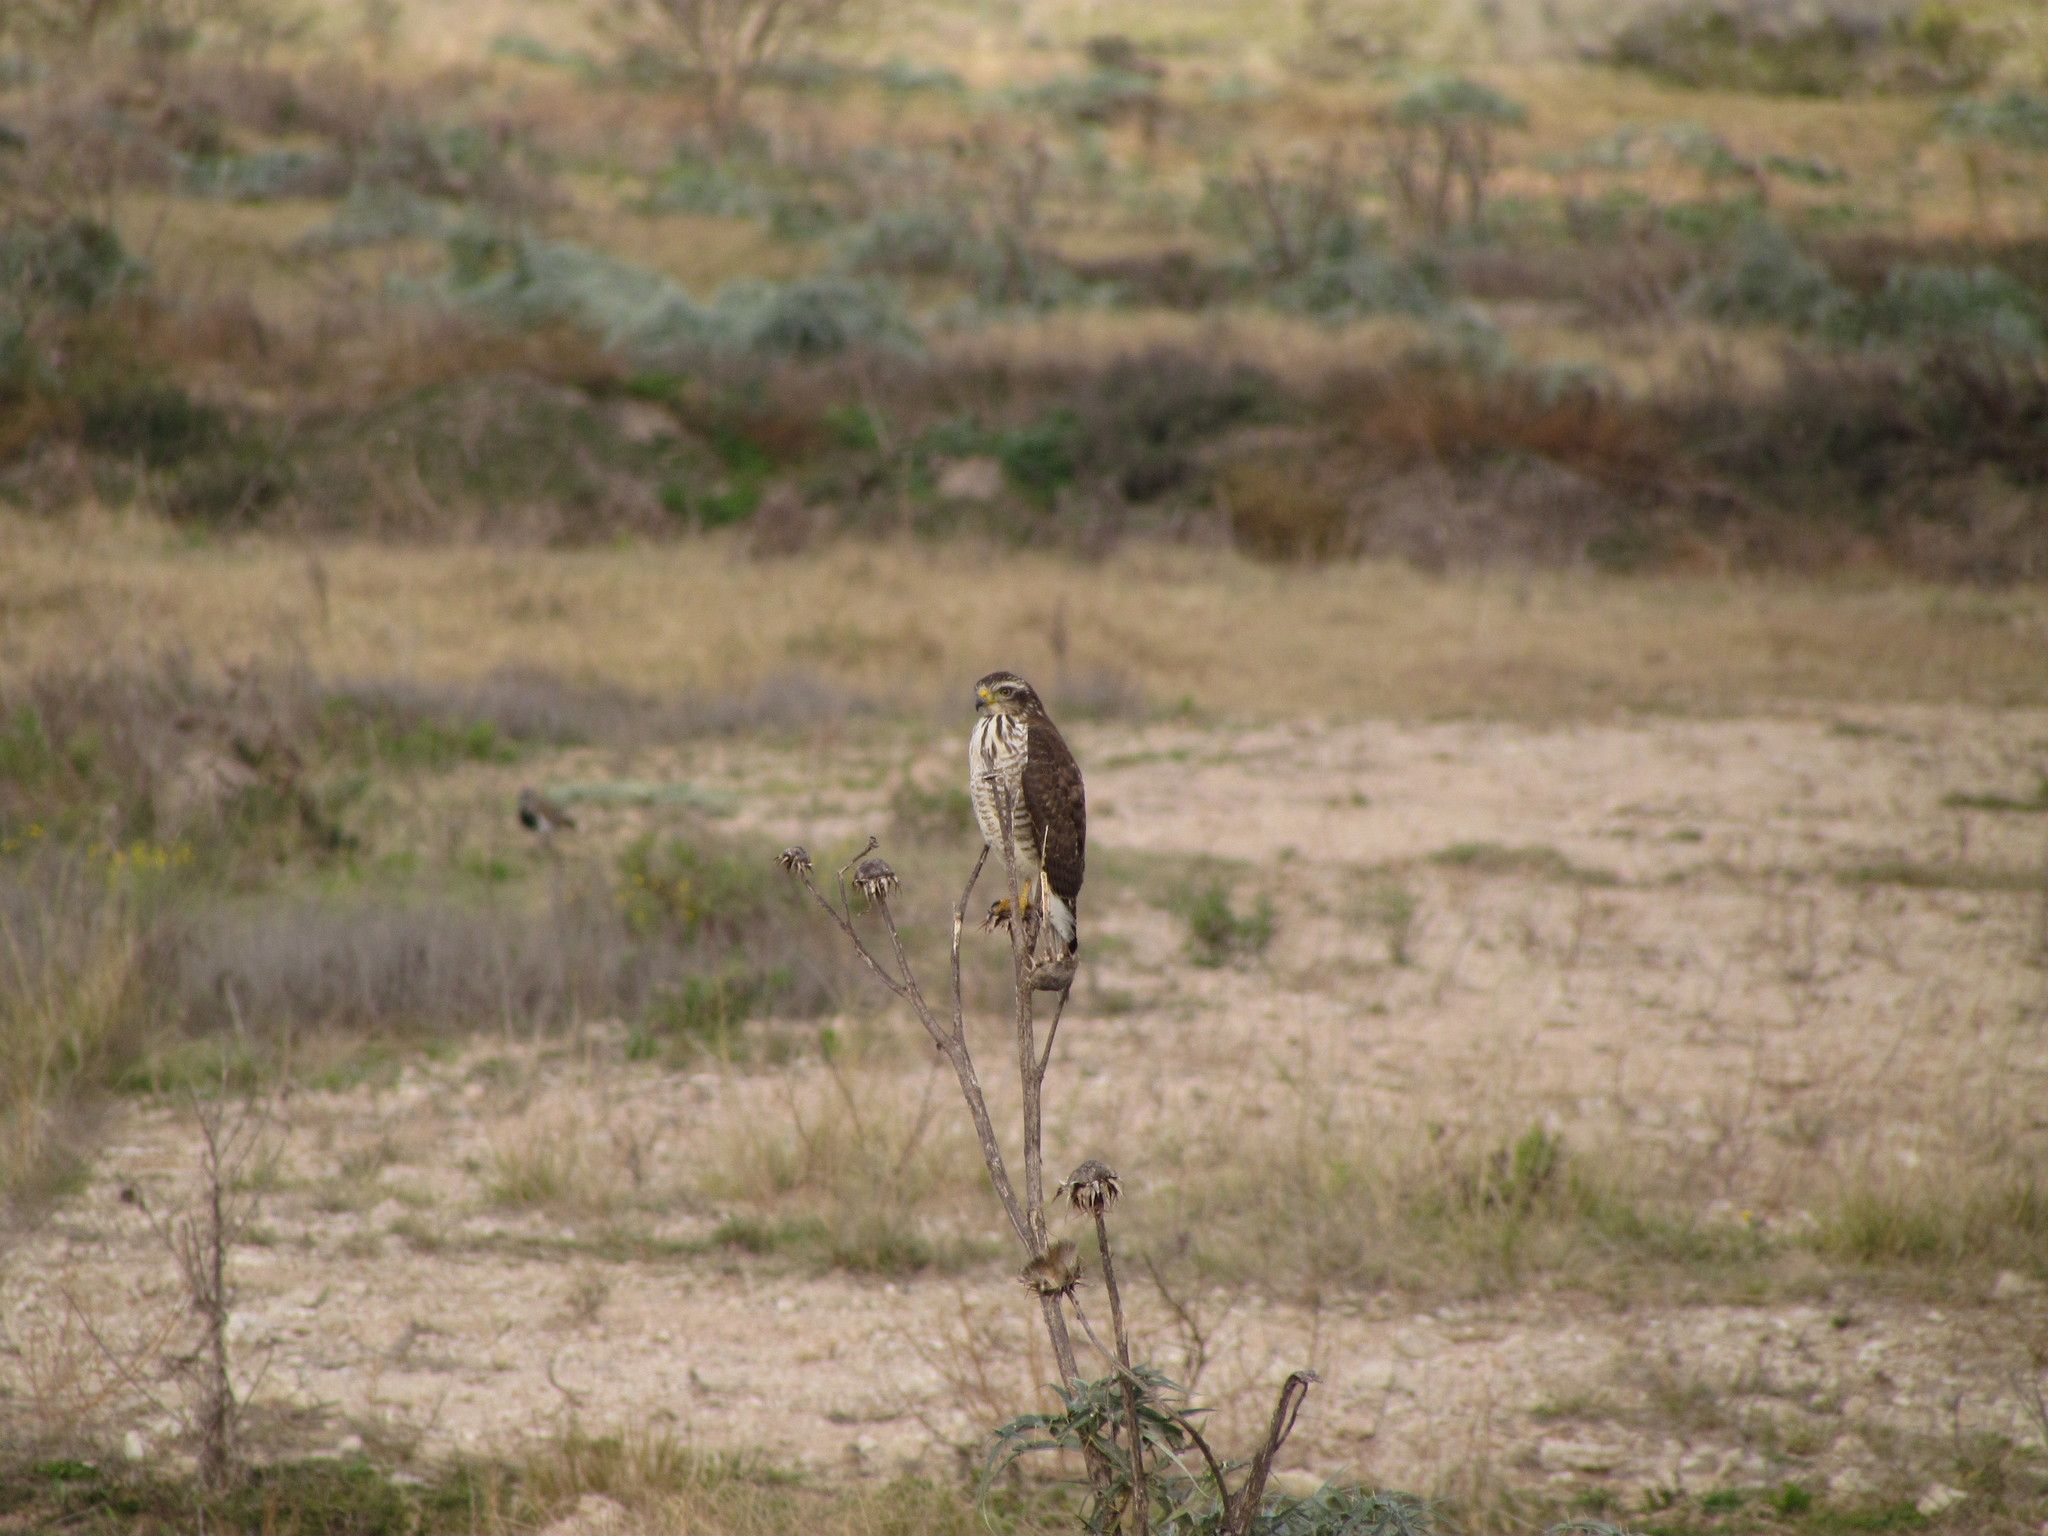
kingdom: Animalia
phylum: Chordata
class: Aves
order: Accipitriformes
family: Accipitridae
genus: Rupornis
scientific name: Rupornis magnirostris
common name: Roadside hawk
